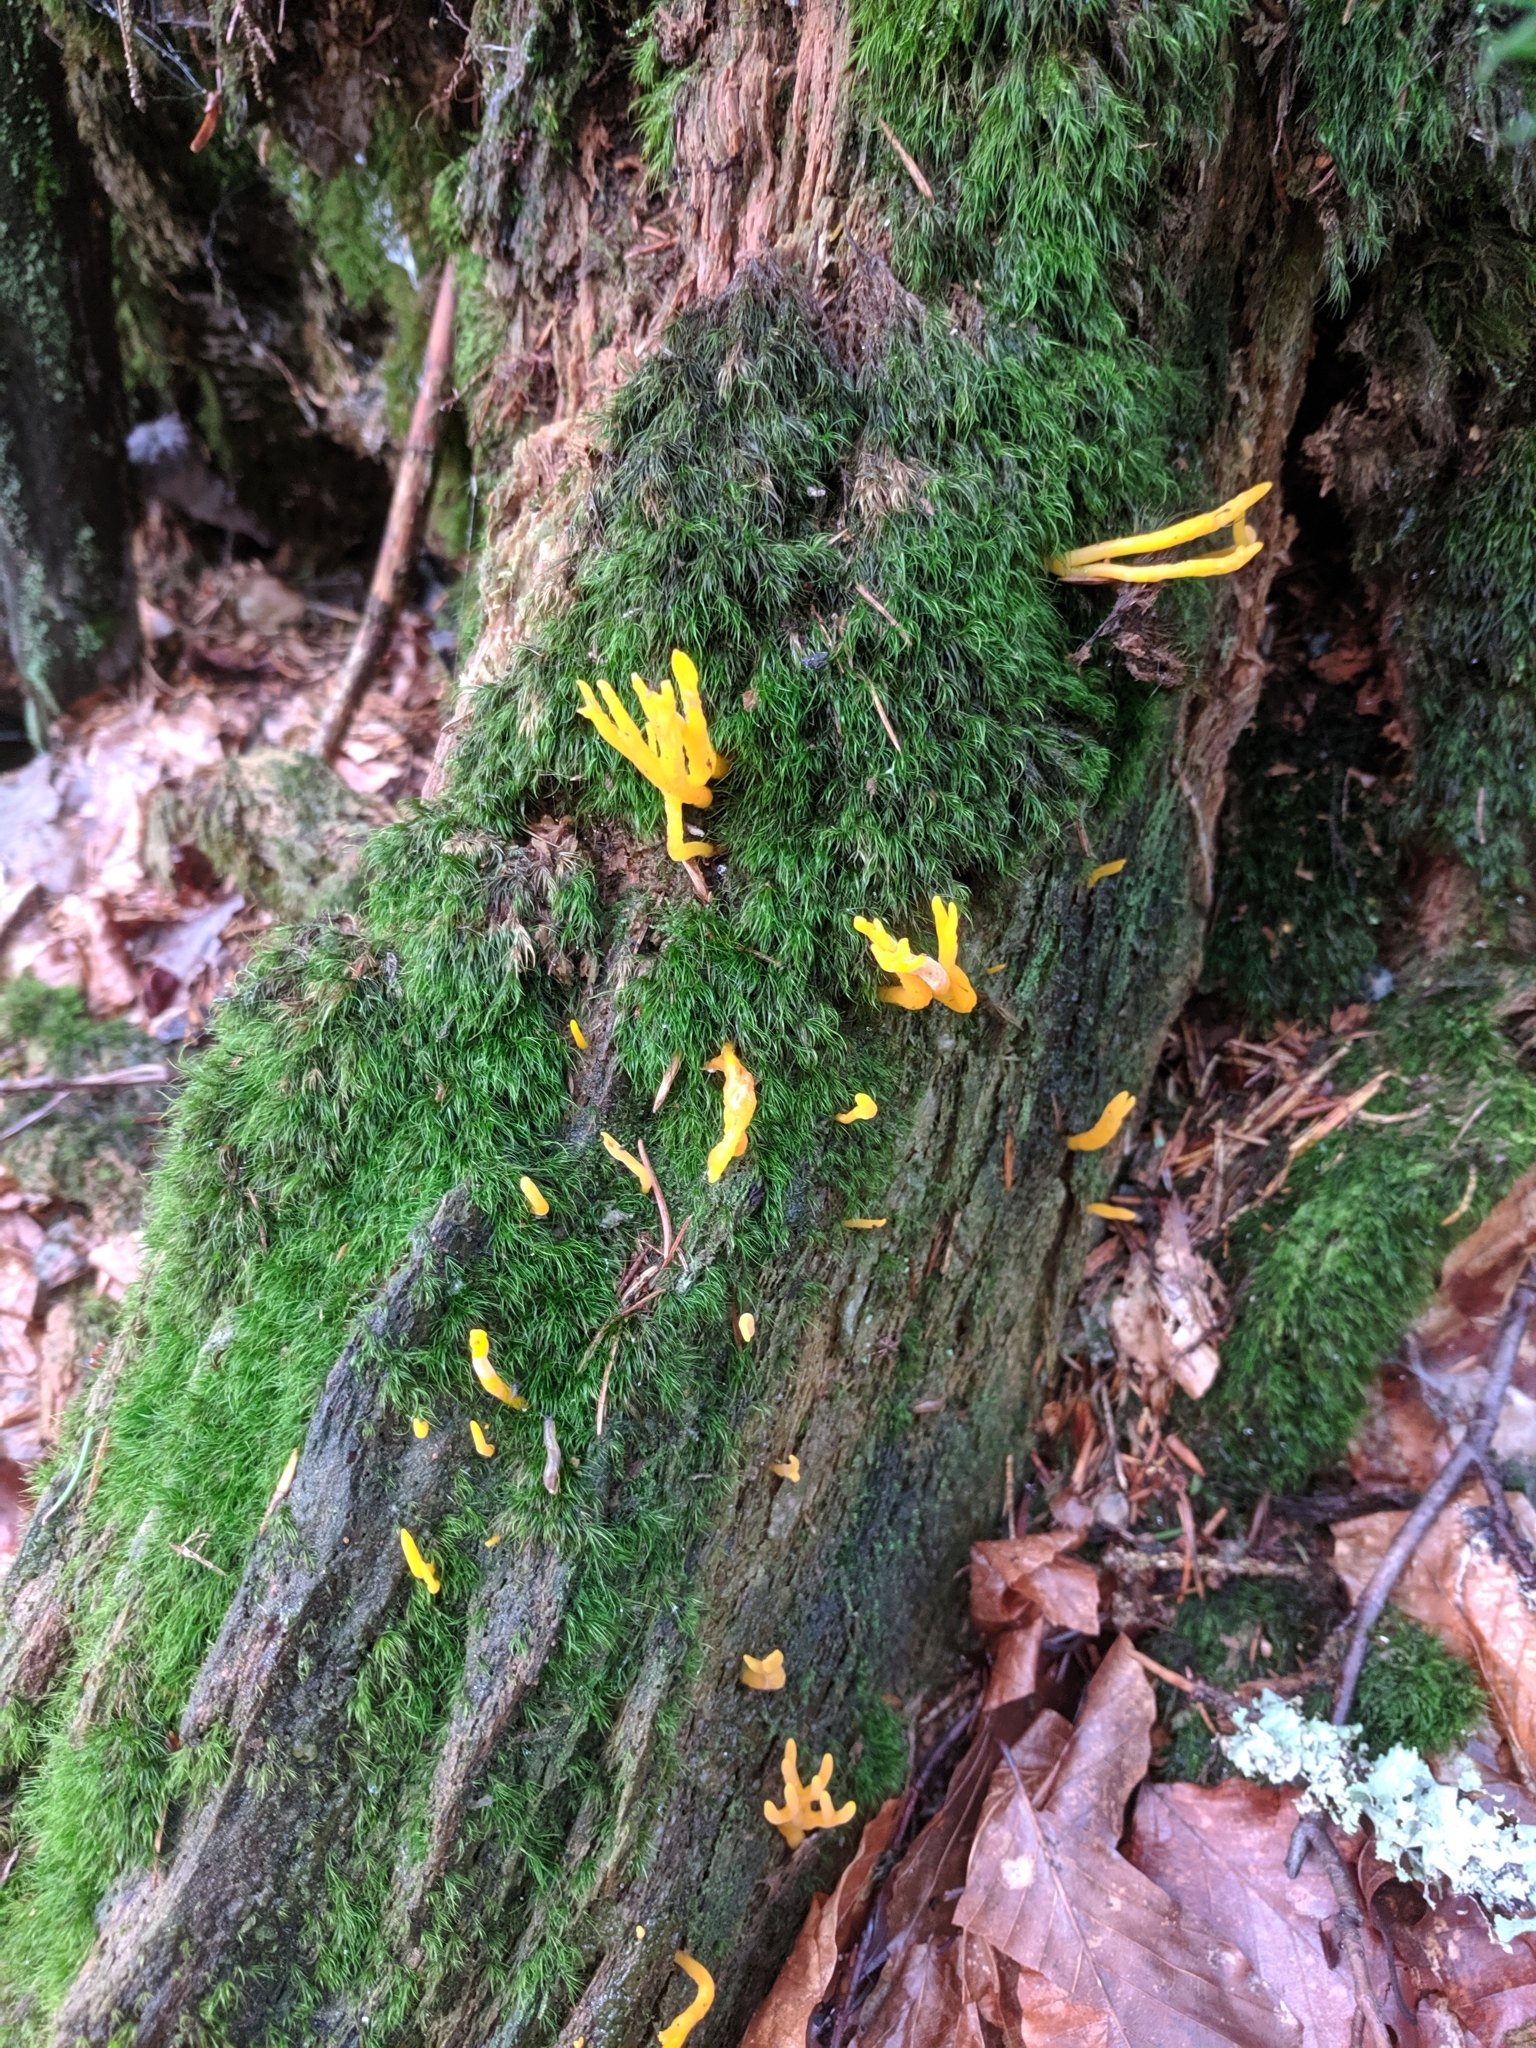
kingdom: Fungi
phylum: Basidiomycota
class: Dacrymycetes
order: Dacrymycetales
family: Dacrymycetaceae
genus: Calocera
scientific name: Calocera viscosa
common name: Yellow stagshorn
